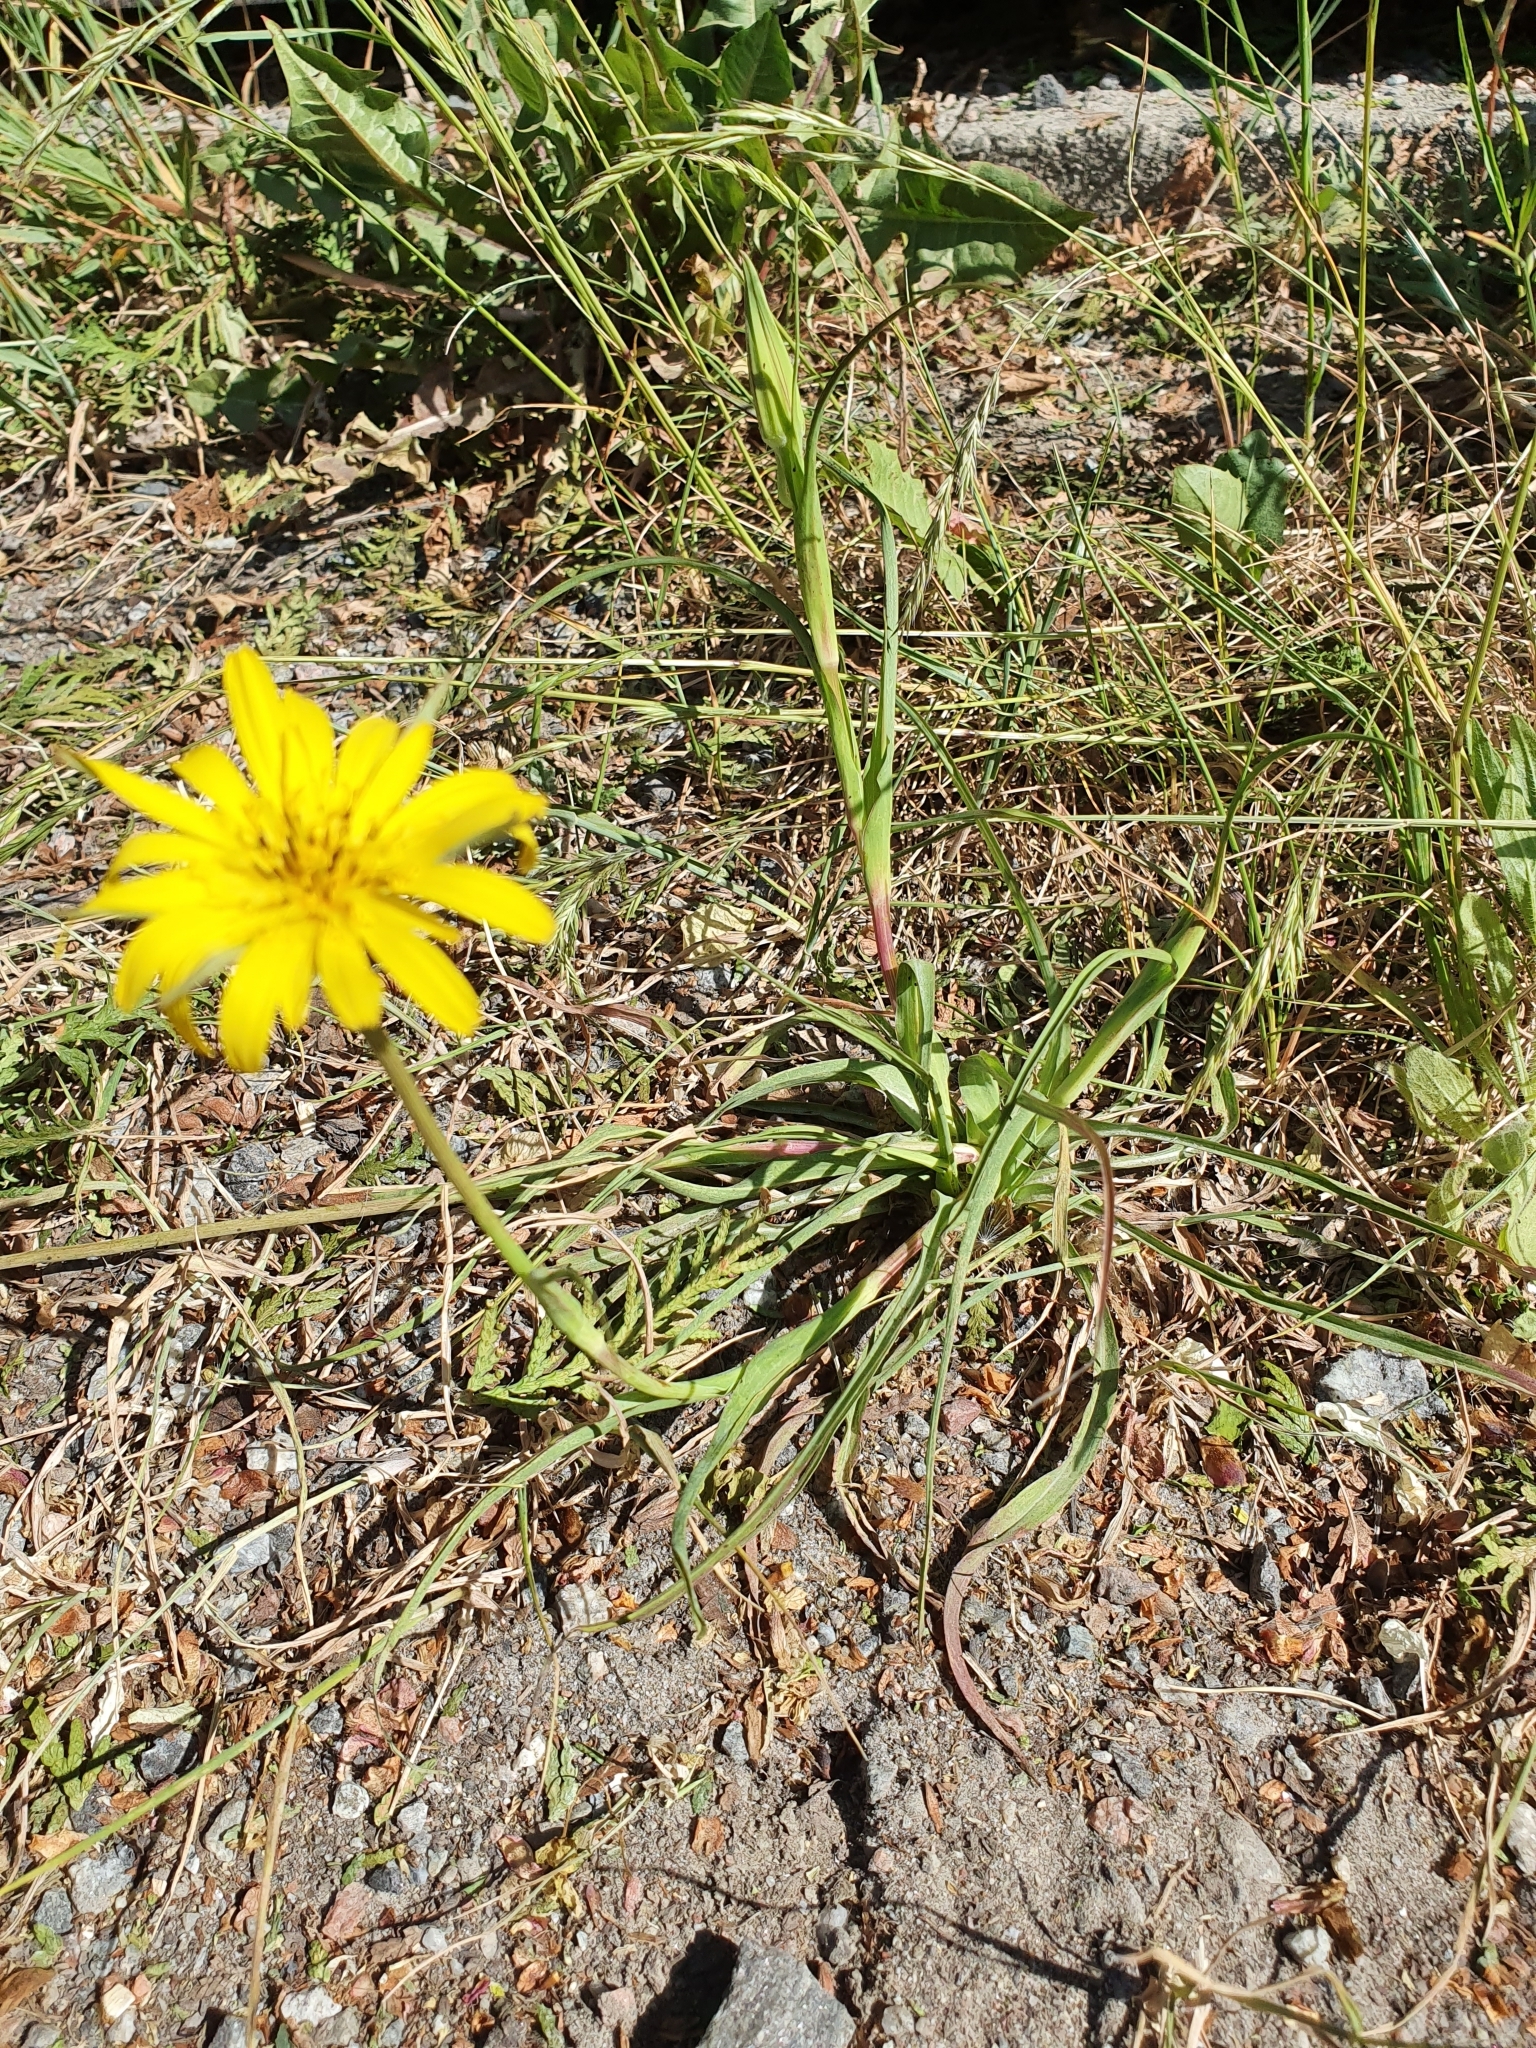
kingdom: Plantae
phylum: Tracheophyta
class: Magnoliopsida
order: Asterales
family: Asteraceae
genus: Tragopogon
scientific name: Tragopogon pratensis
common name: Goat's-beard
